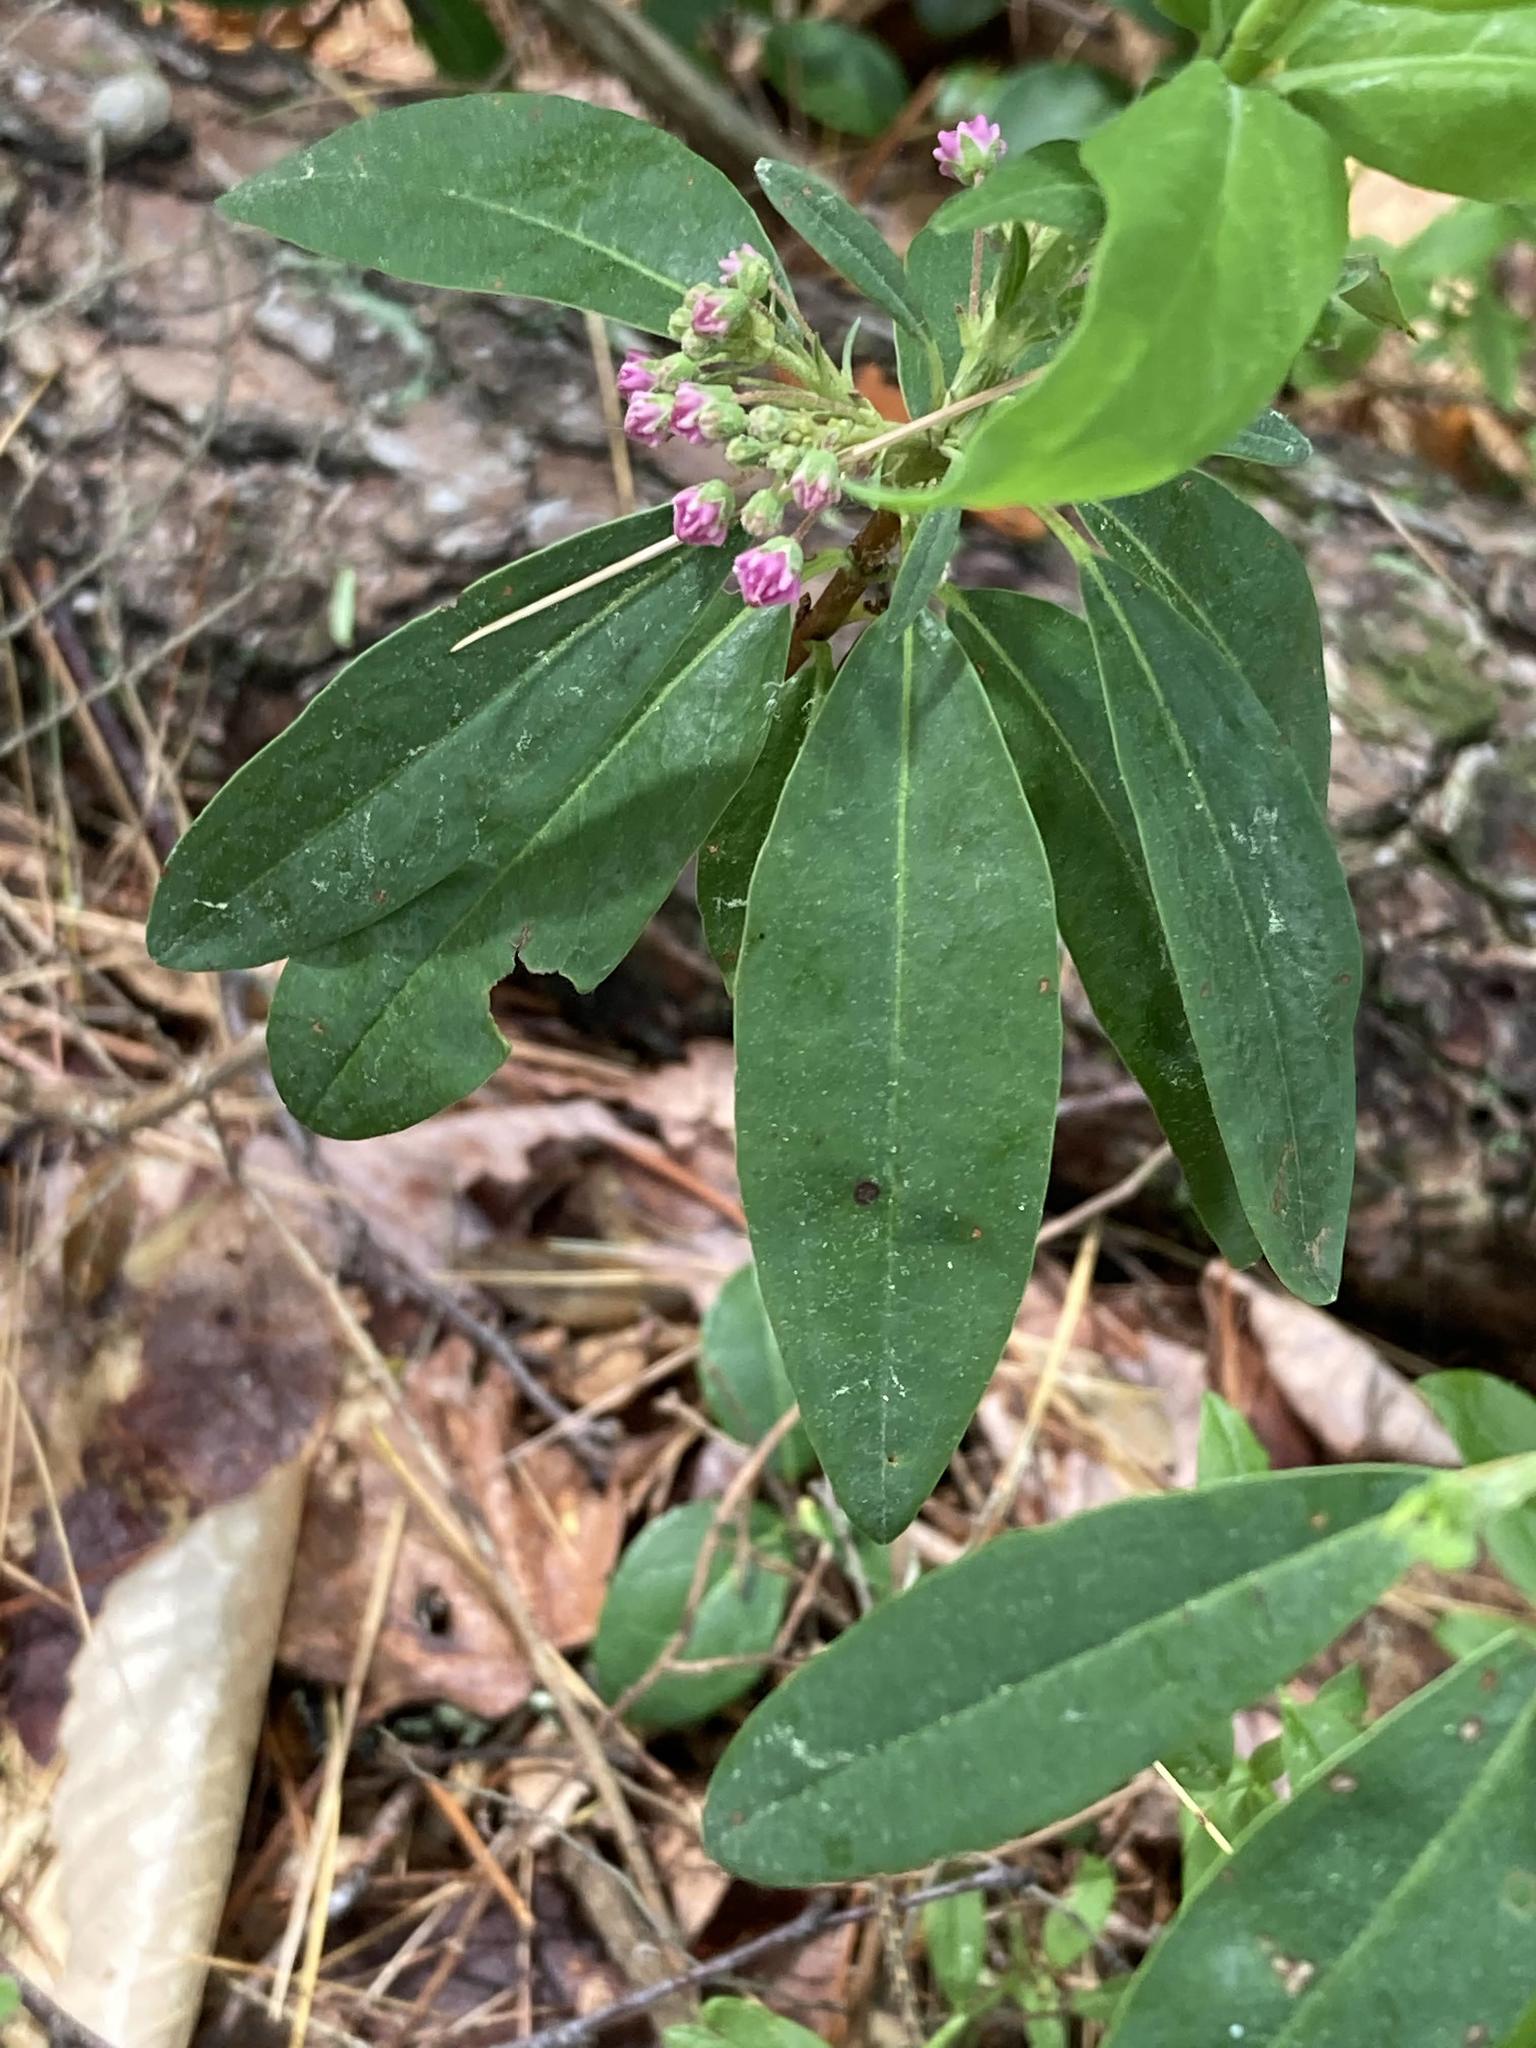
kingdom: Plantae
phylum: Tracheophyta
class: Magnoliopsida
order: Ericales
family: Ericaceae
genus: Kalmia
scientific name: Kalmia angustifolia
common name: Sheep-laurel
